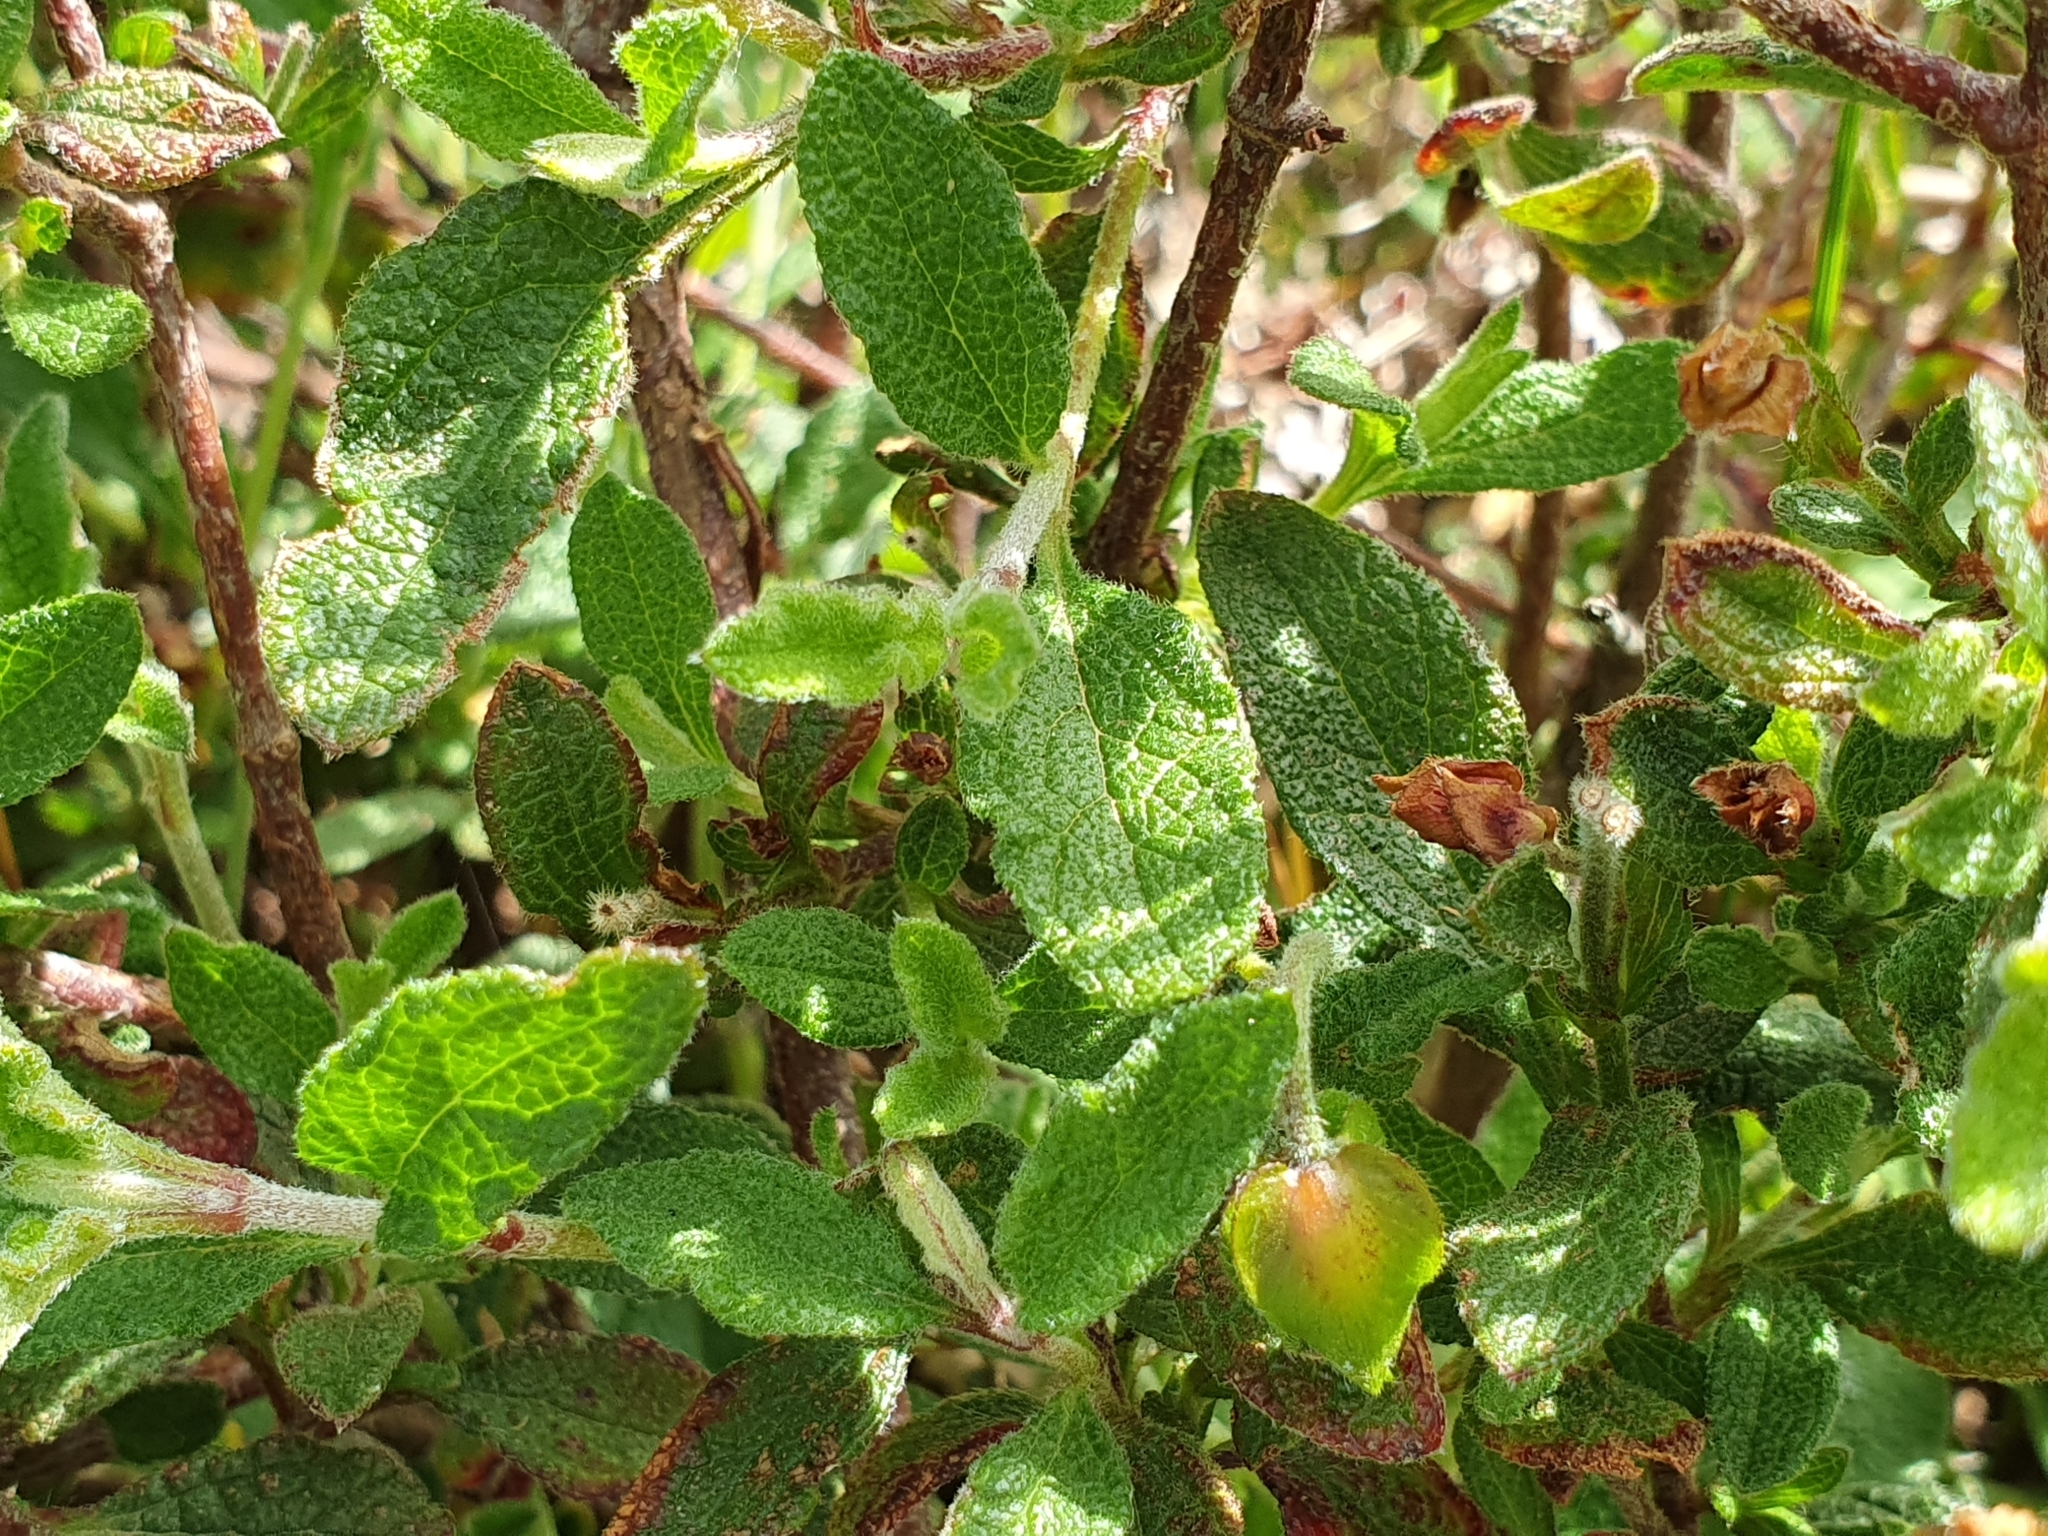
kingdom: Plantae
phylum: Tracheophyta
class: Magnoliopsida
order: Malvales
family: Cistaceae
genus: Cistus
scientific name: Cistus salviifolius
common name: Salvia cistus
